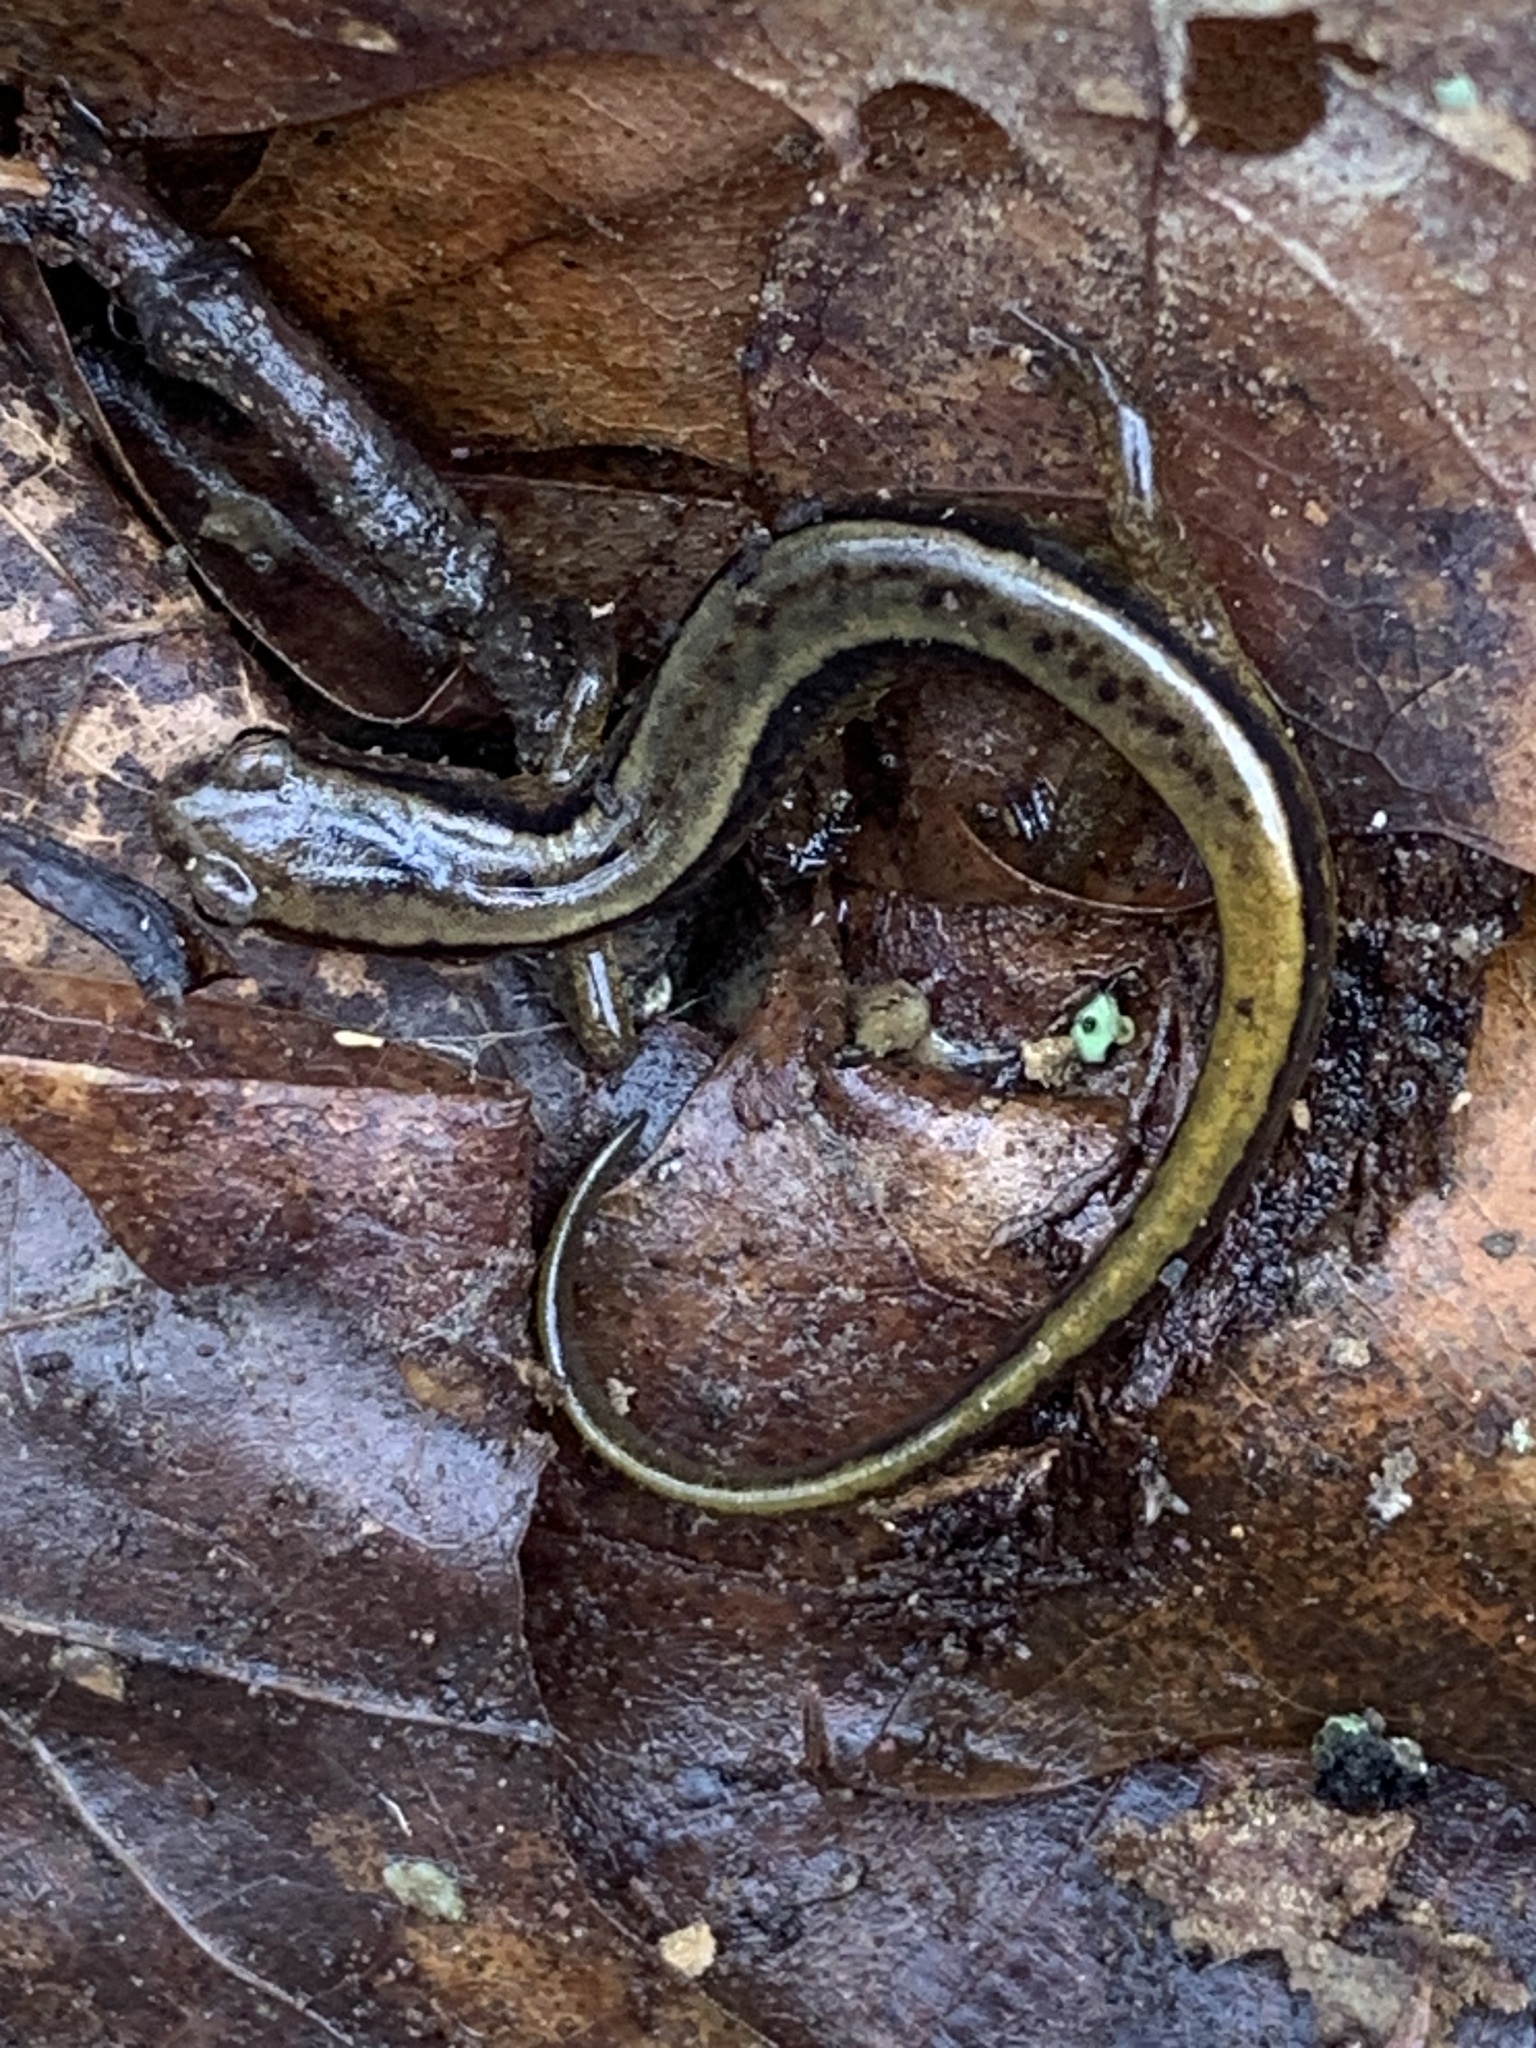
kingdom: Animalia
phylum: Chordata
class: Amphibia
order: Caudata
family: Plethodontidae
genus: Eurycea
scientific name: Eurycea cirrigera
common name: Southern two-lined salamander
